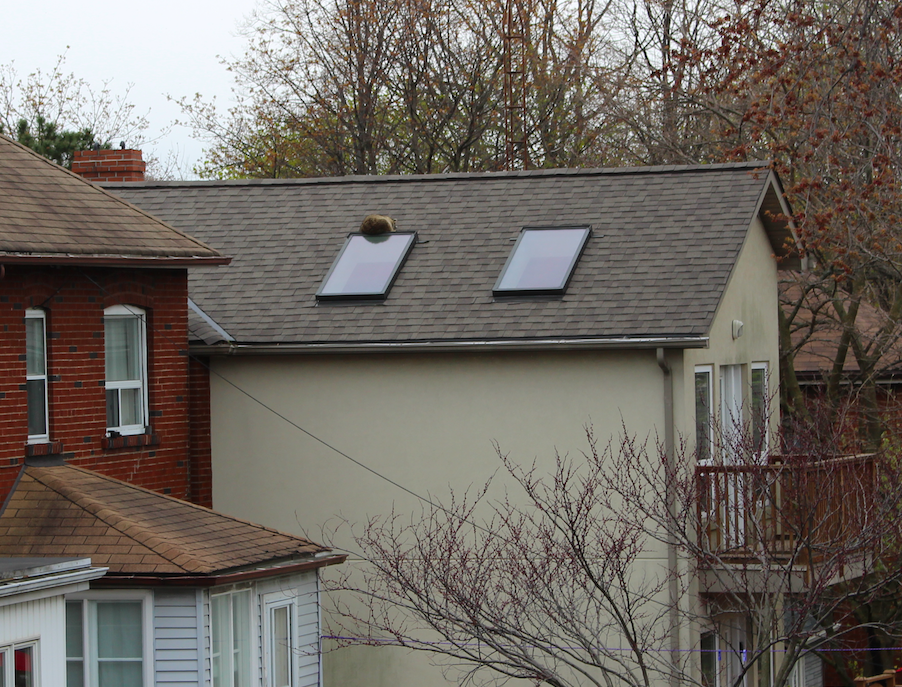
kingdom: Animalia
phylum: Chordata
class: Mammalia
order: Carnivora
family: Procyonidae
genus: Procyon
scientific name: Procyon lotor
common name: Raccoon
